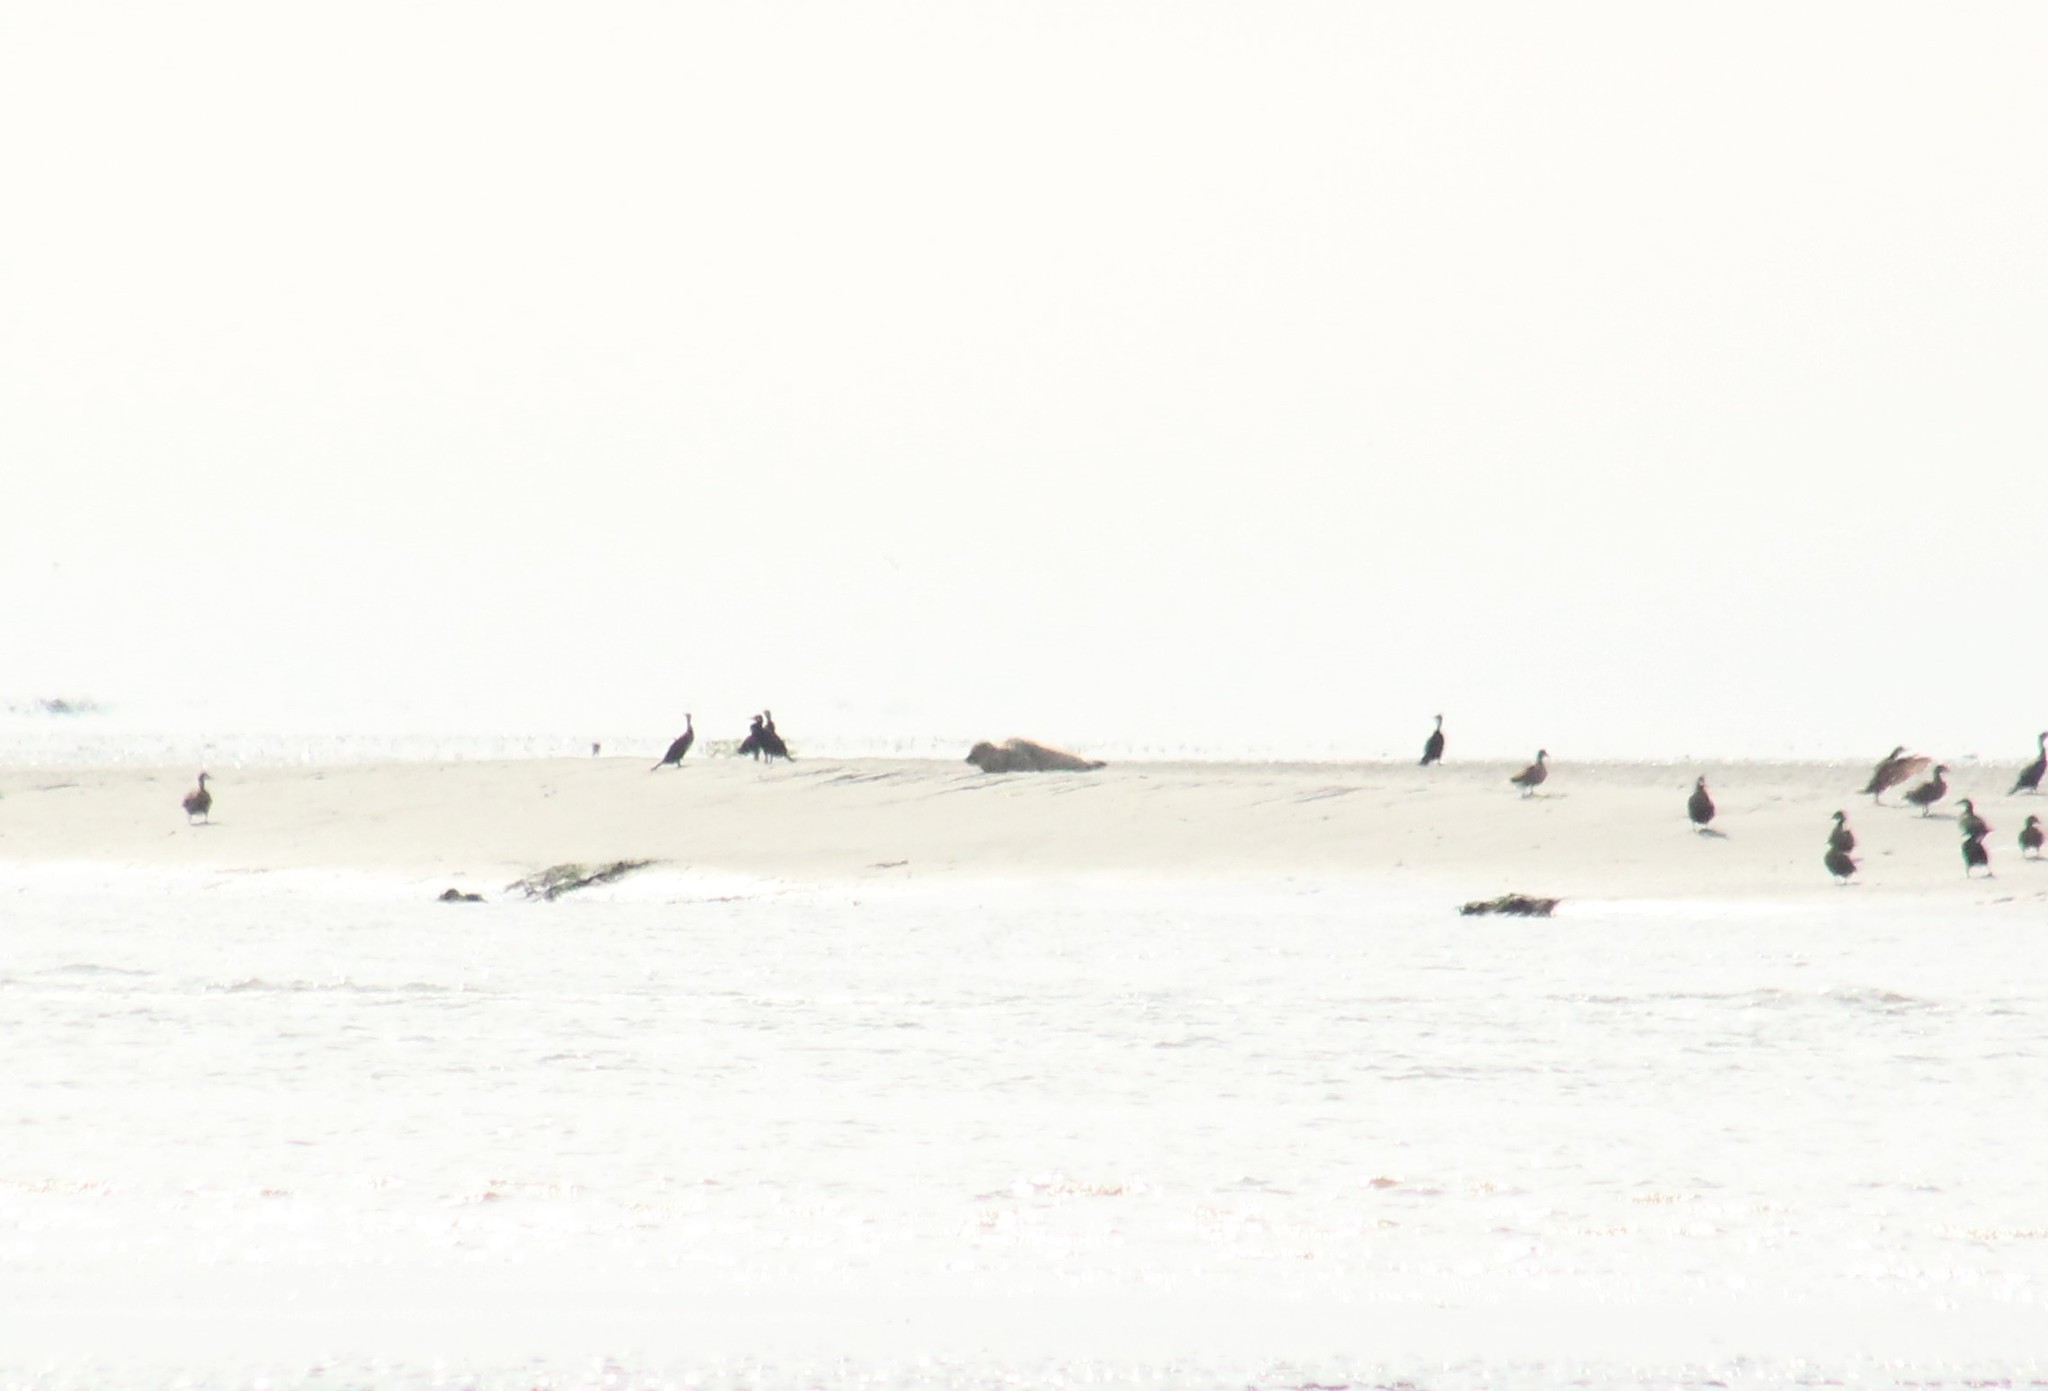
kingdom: Animalia
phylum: Chordata
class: Mammalia
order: Carnivora
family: Phocidae
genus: Phoca
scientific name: Phoca vitulina
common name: Harbor seal
